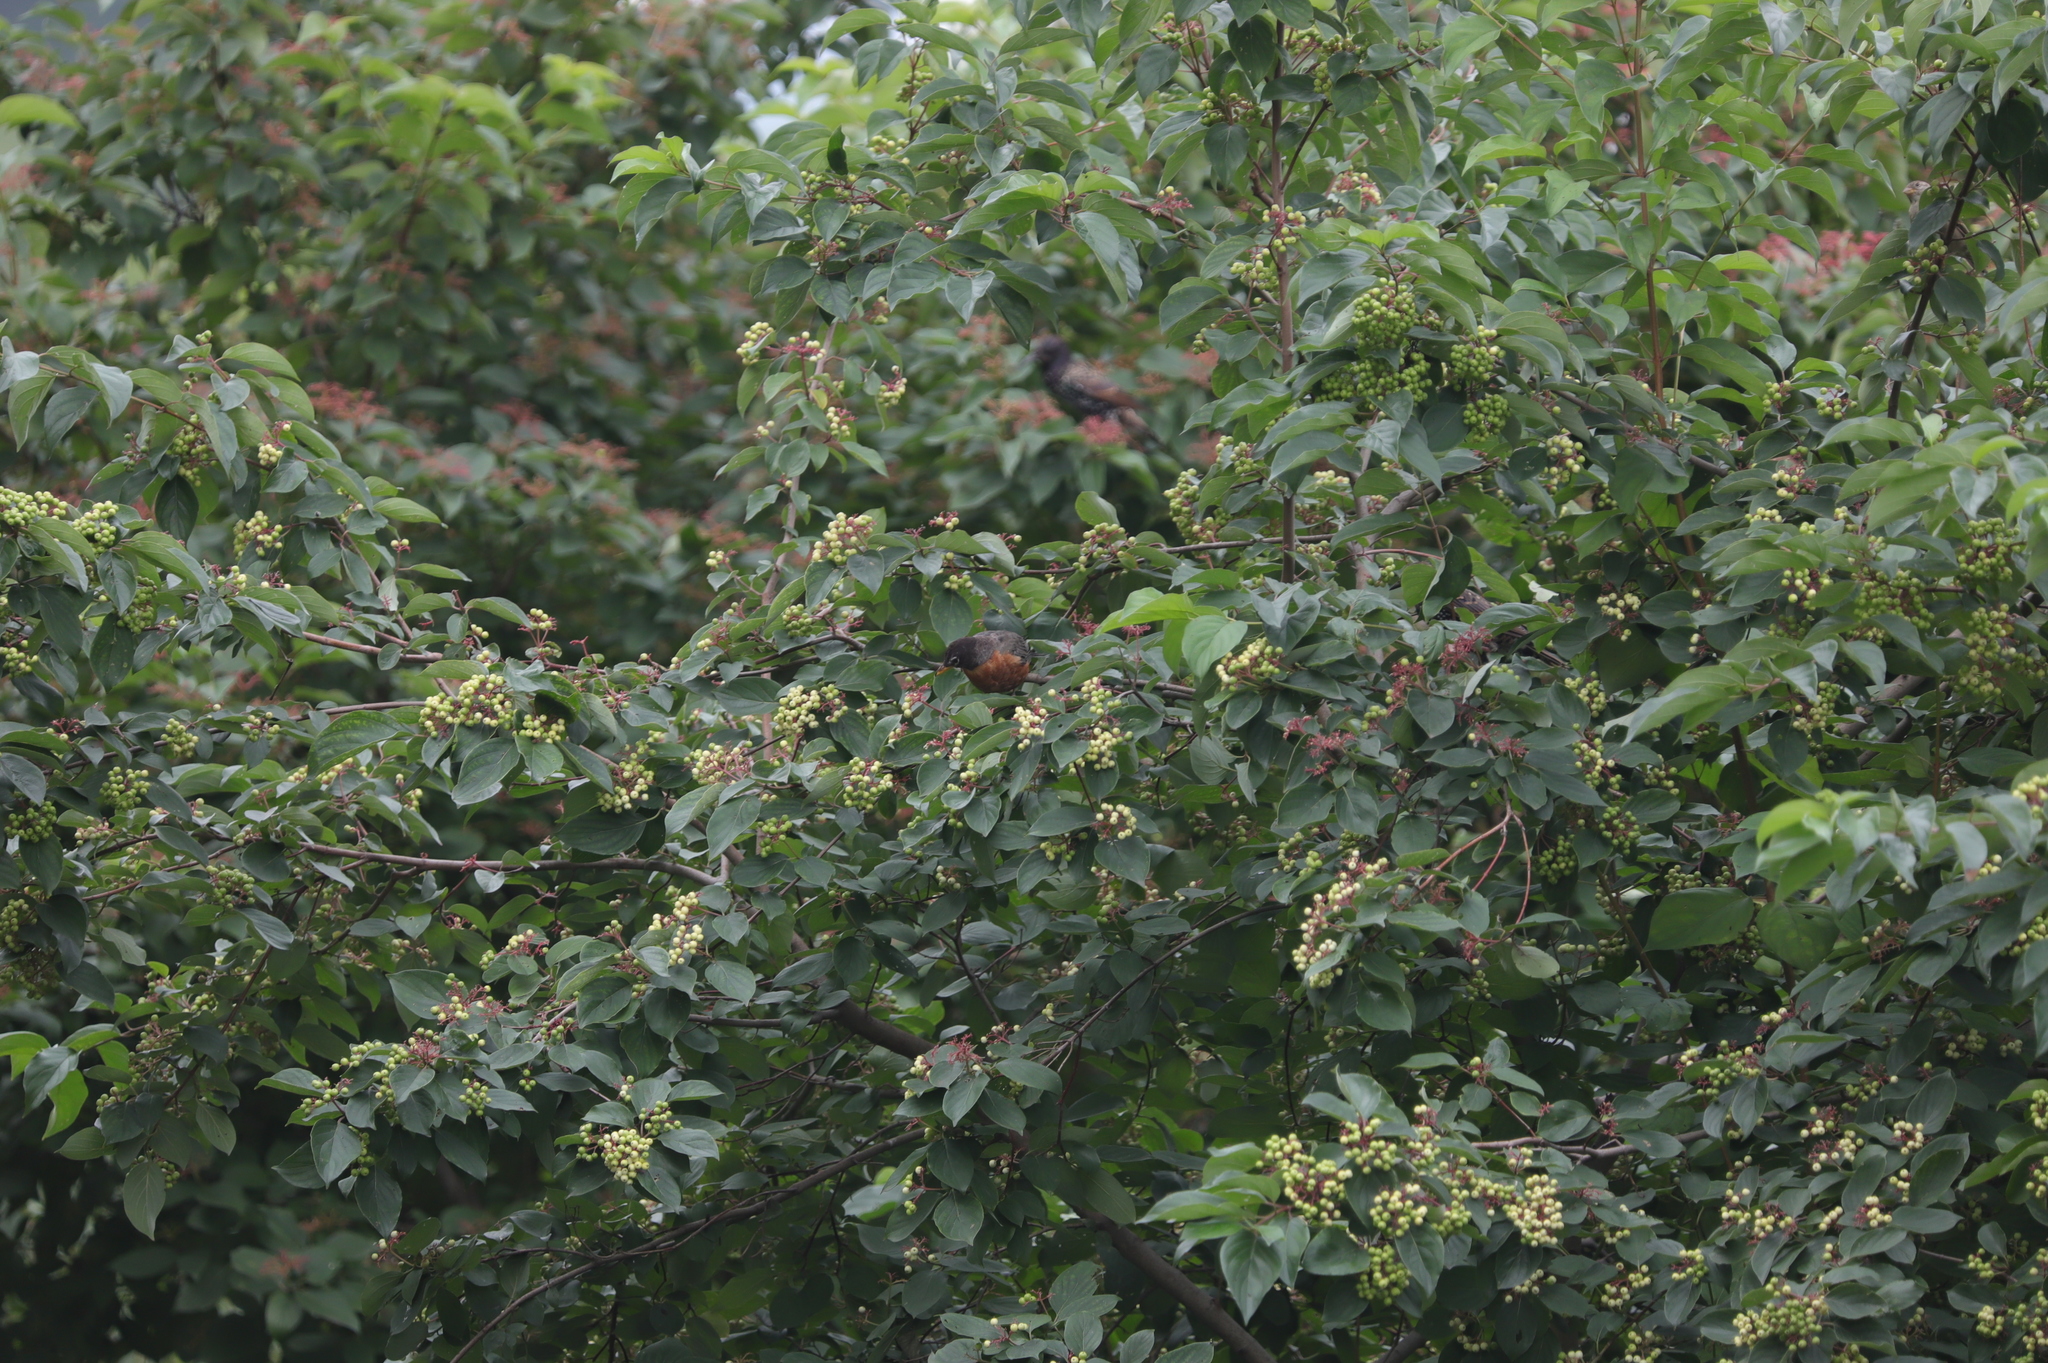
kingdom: Animalia
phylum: Chordata
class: Aves
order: Passeriformes
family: Turdidae
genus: Turdus
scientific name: Turdus migratorius
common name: American robin
